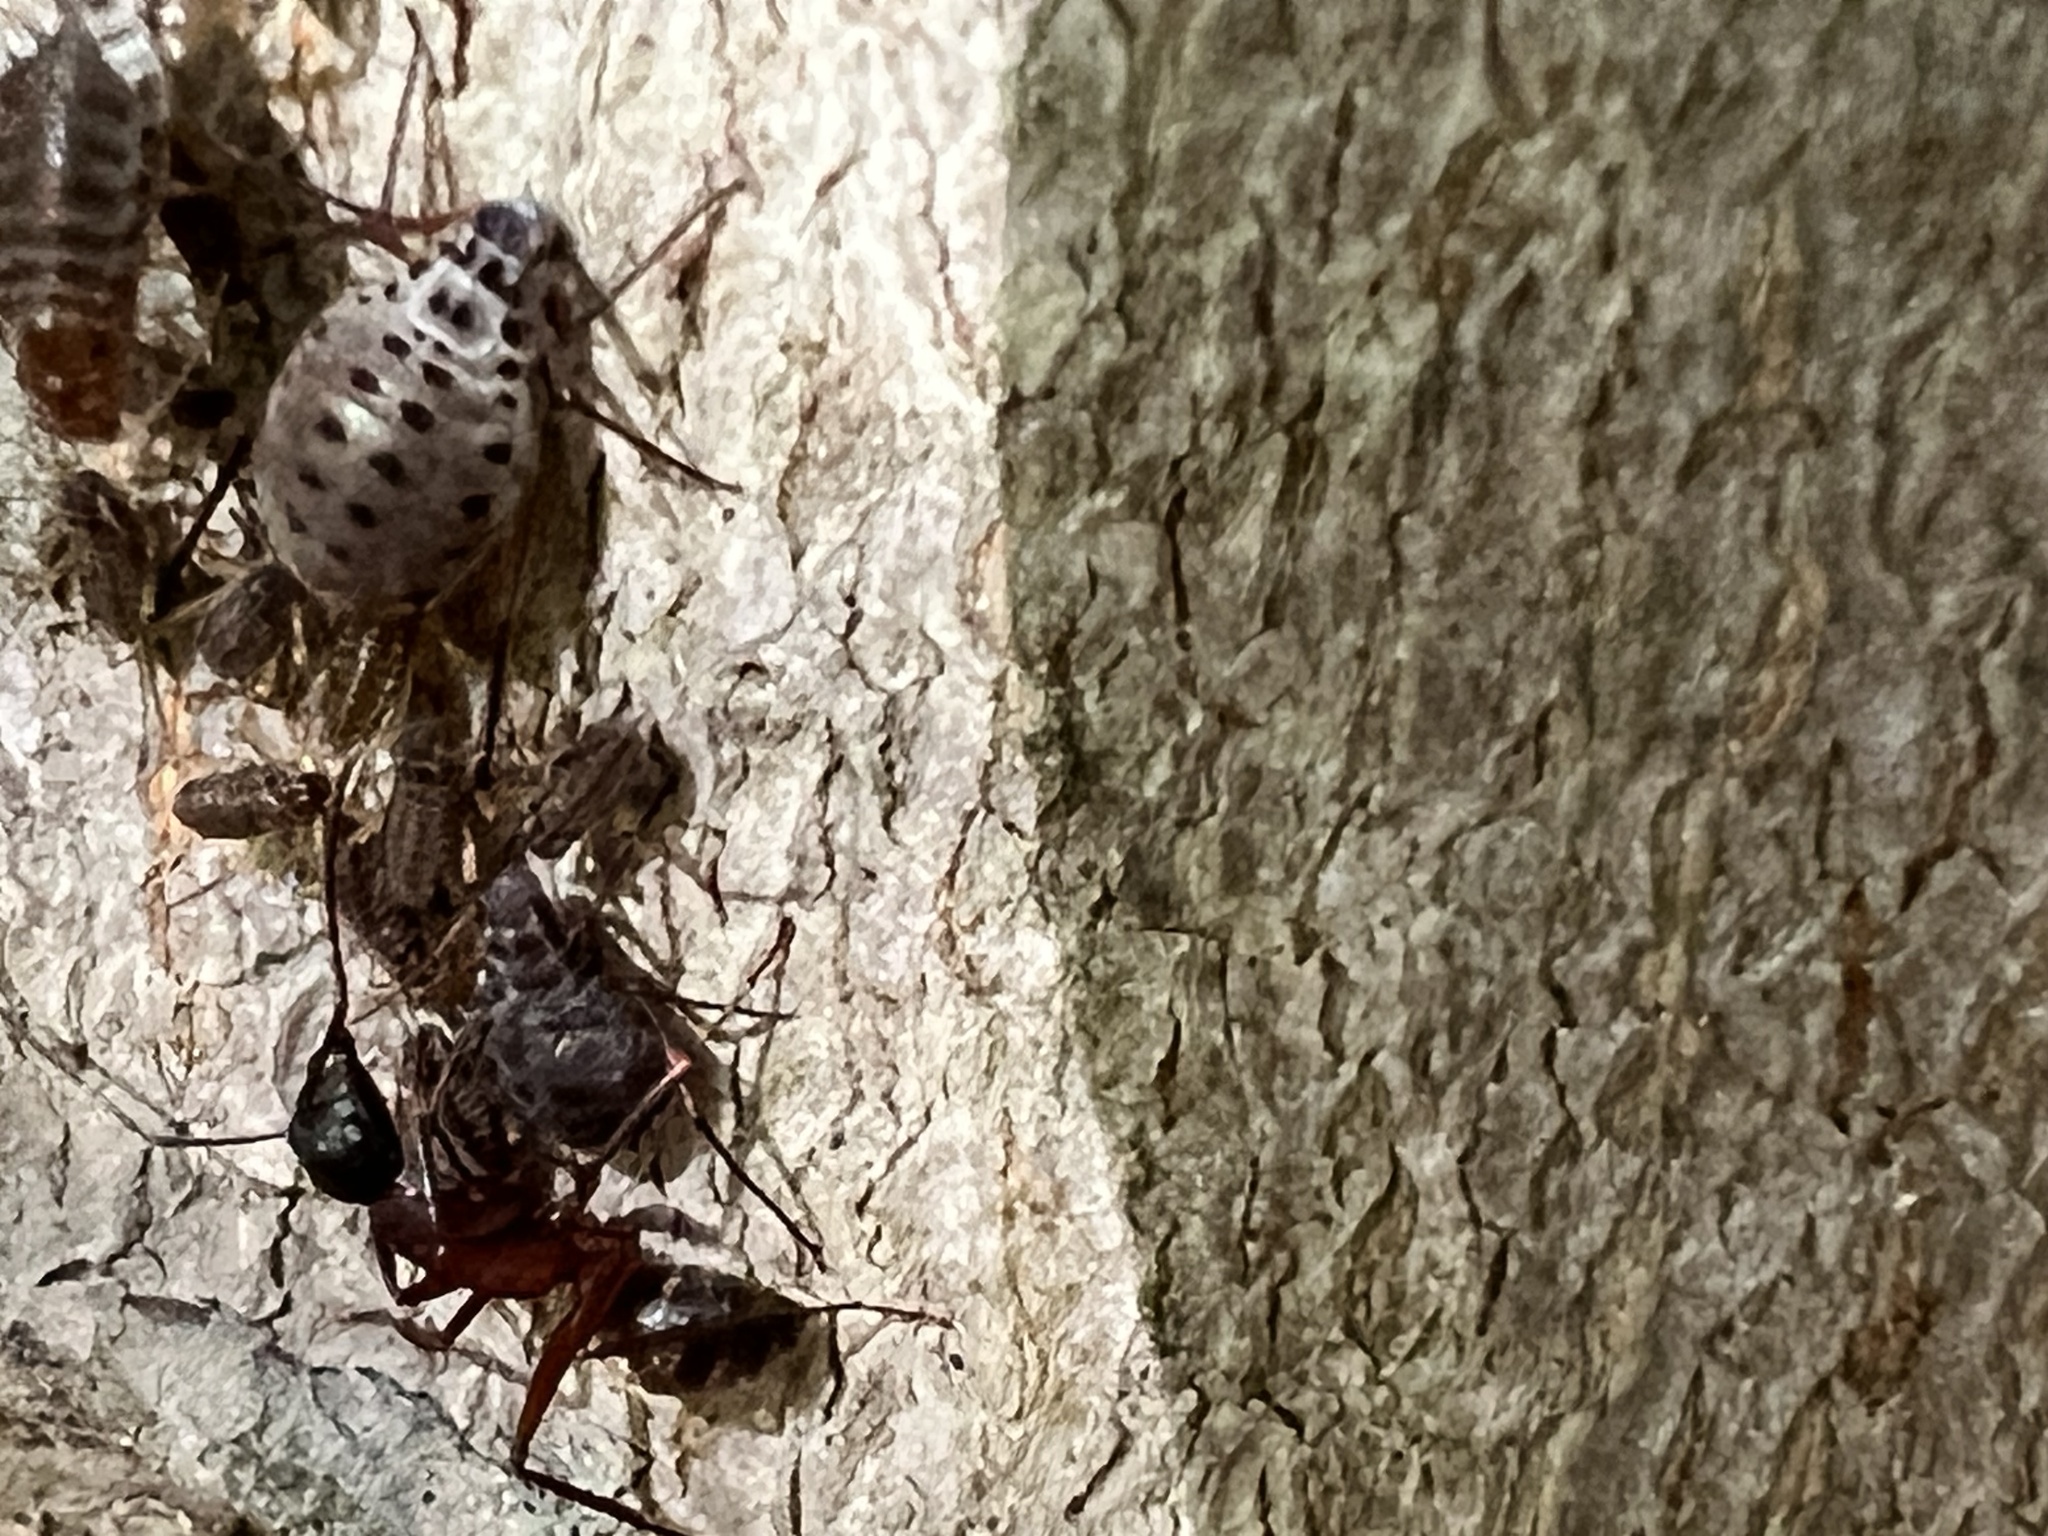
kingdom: Animalia
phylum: Arthropoda
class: Insecta
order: Hemiptera
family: Aphididae
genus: Longistigma
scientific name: Longistigma caryae
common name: Giant bark aphid
